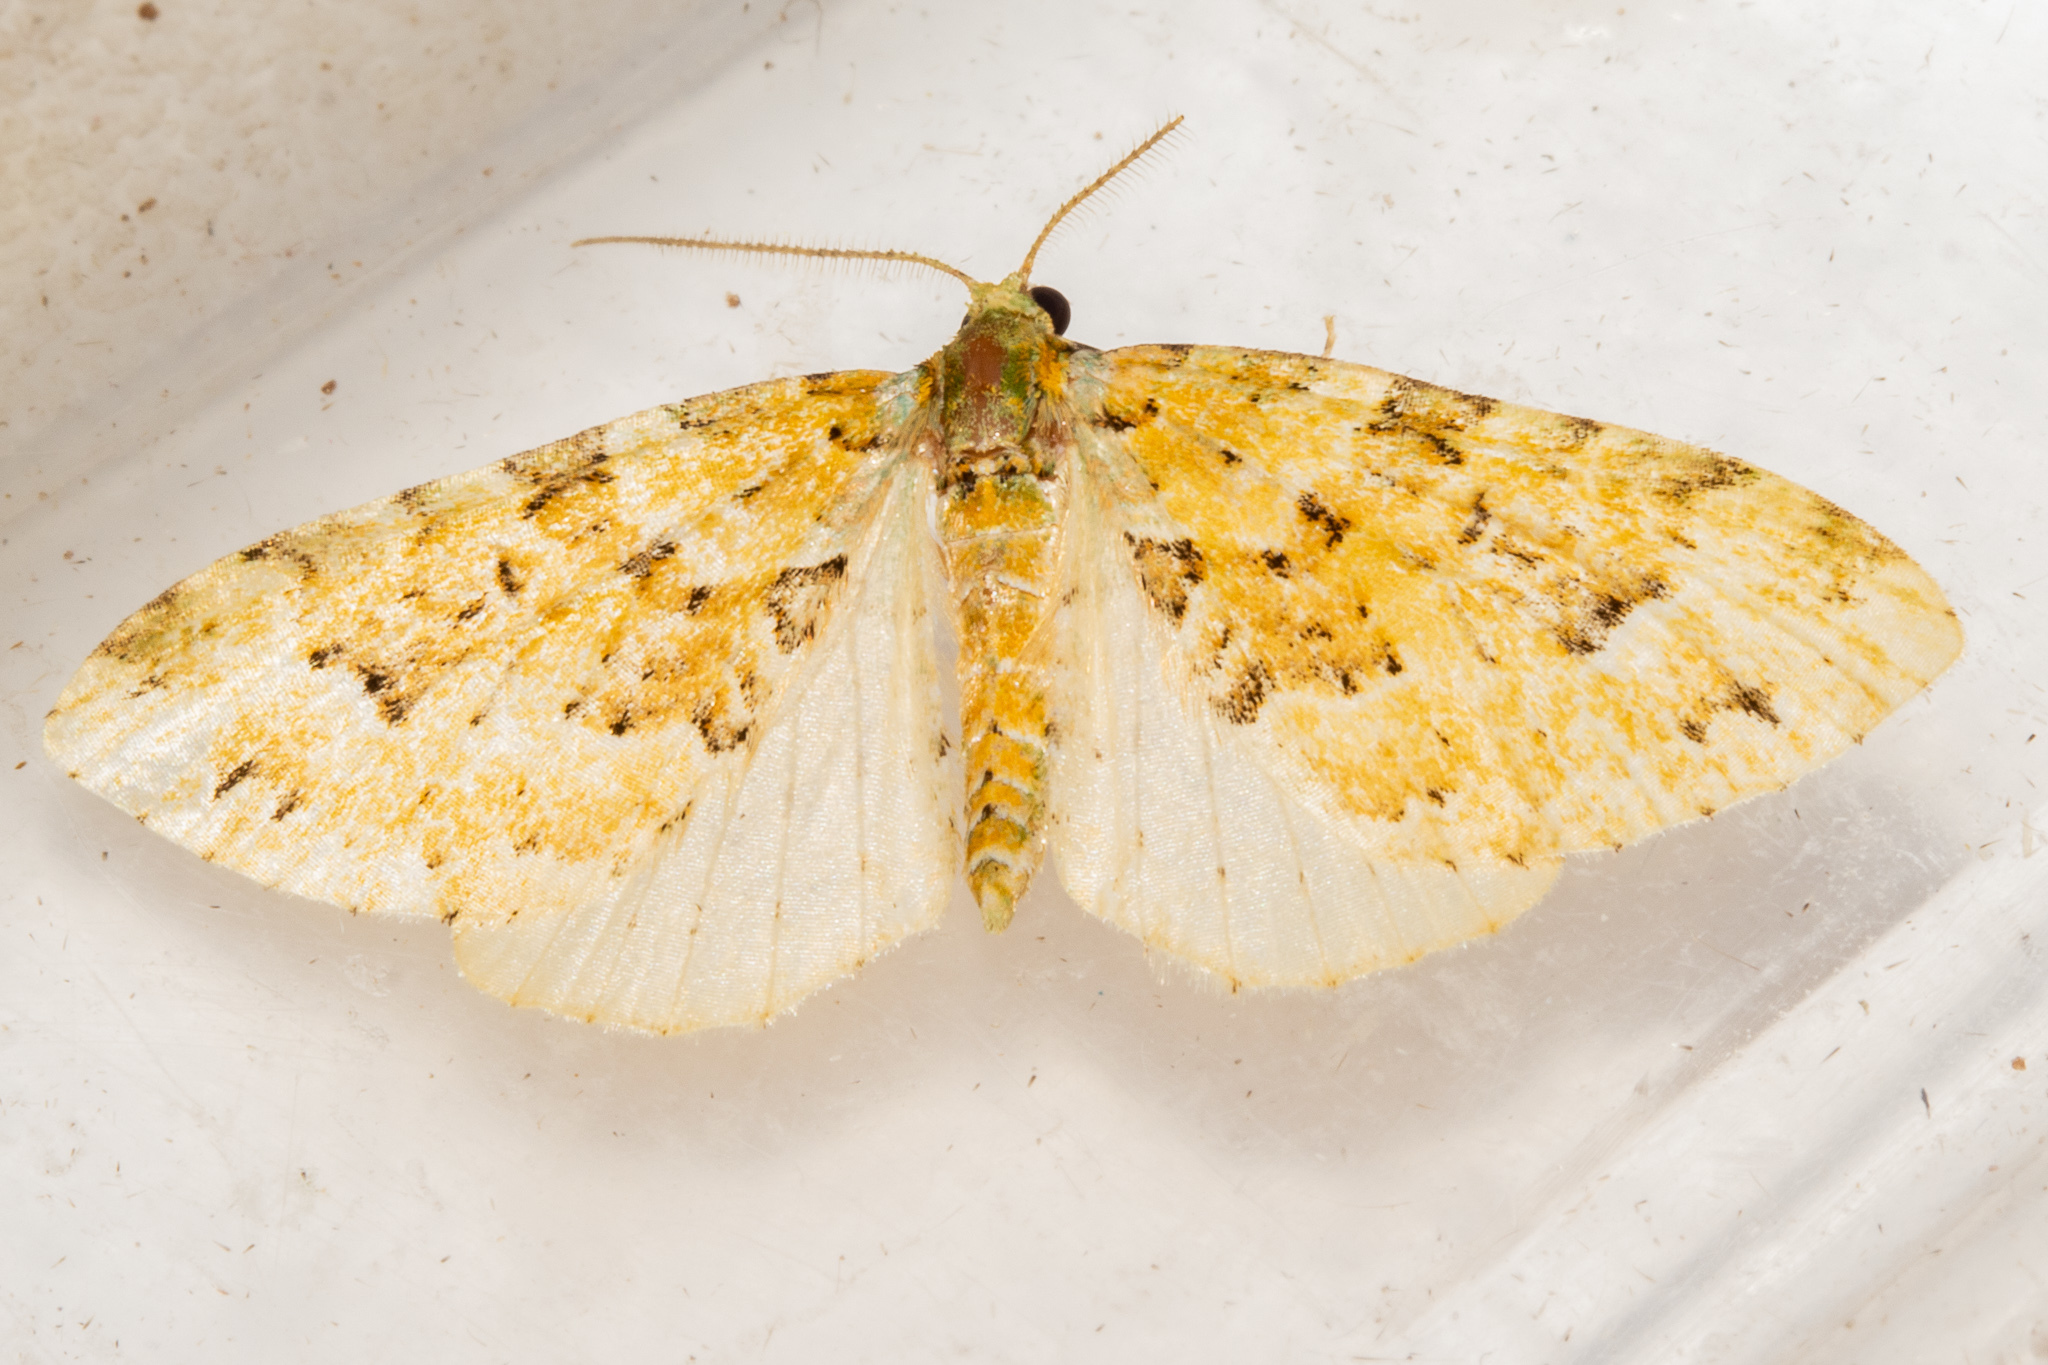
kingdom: Animalia
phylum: Arthropoda
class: Insecta
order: Lepidoptera
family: Geometridae
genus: Pasiphila
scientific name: Pasiphila melochlora
